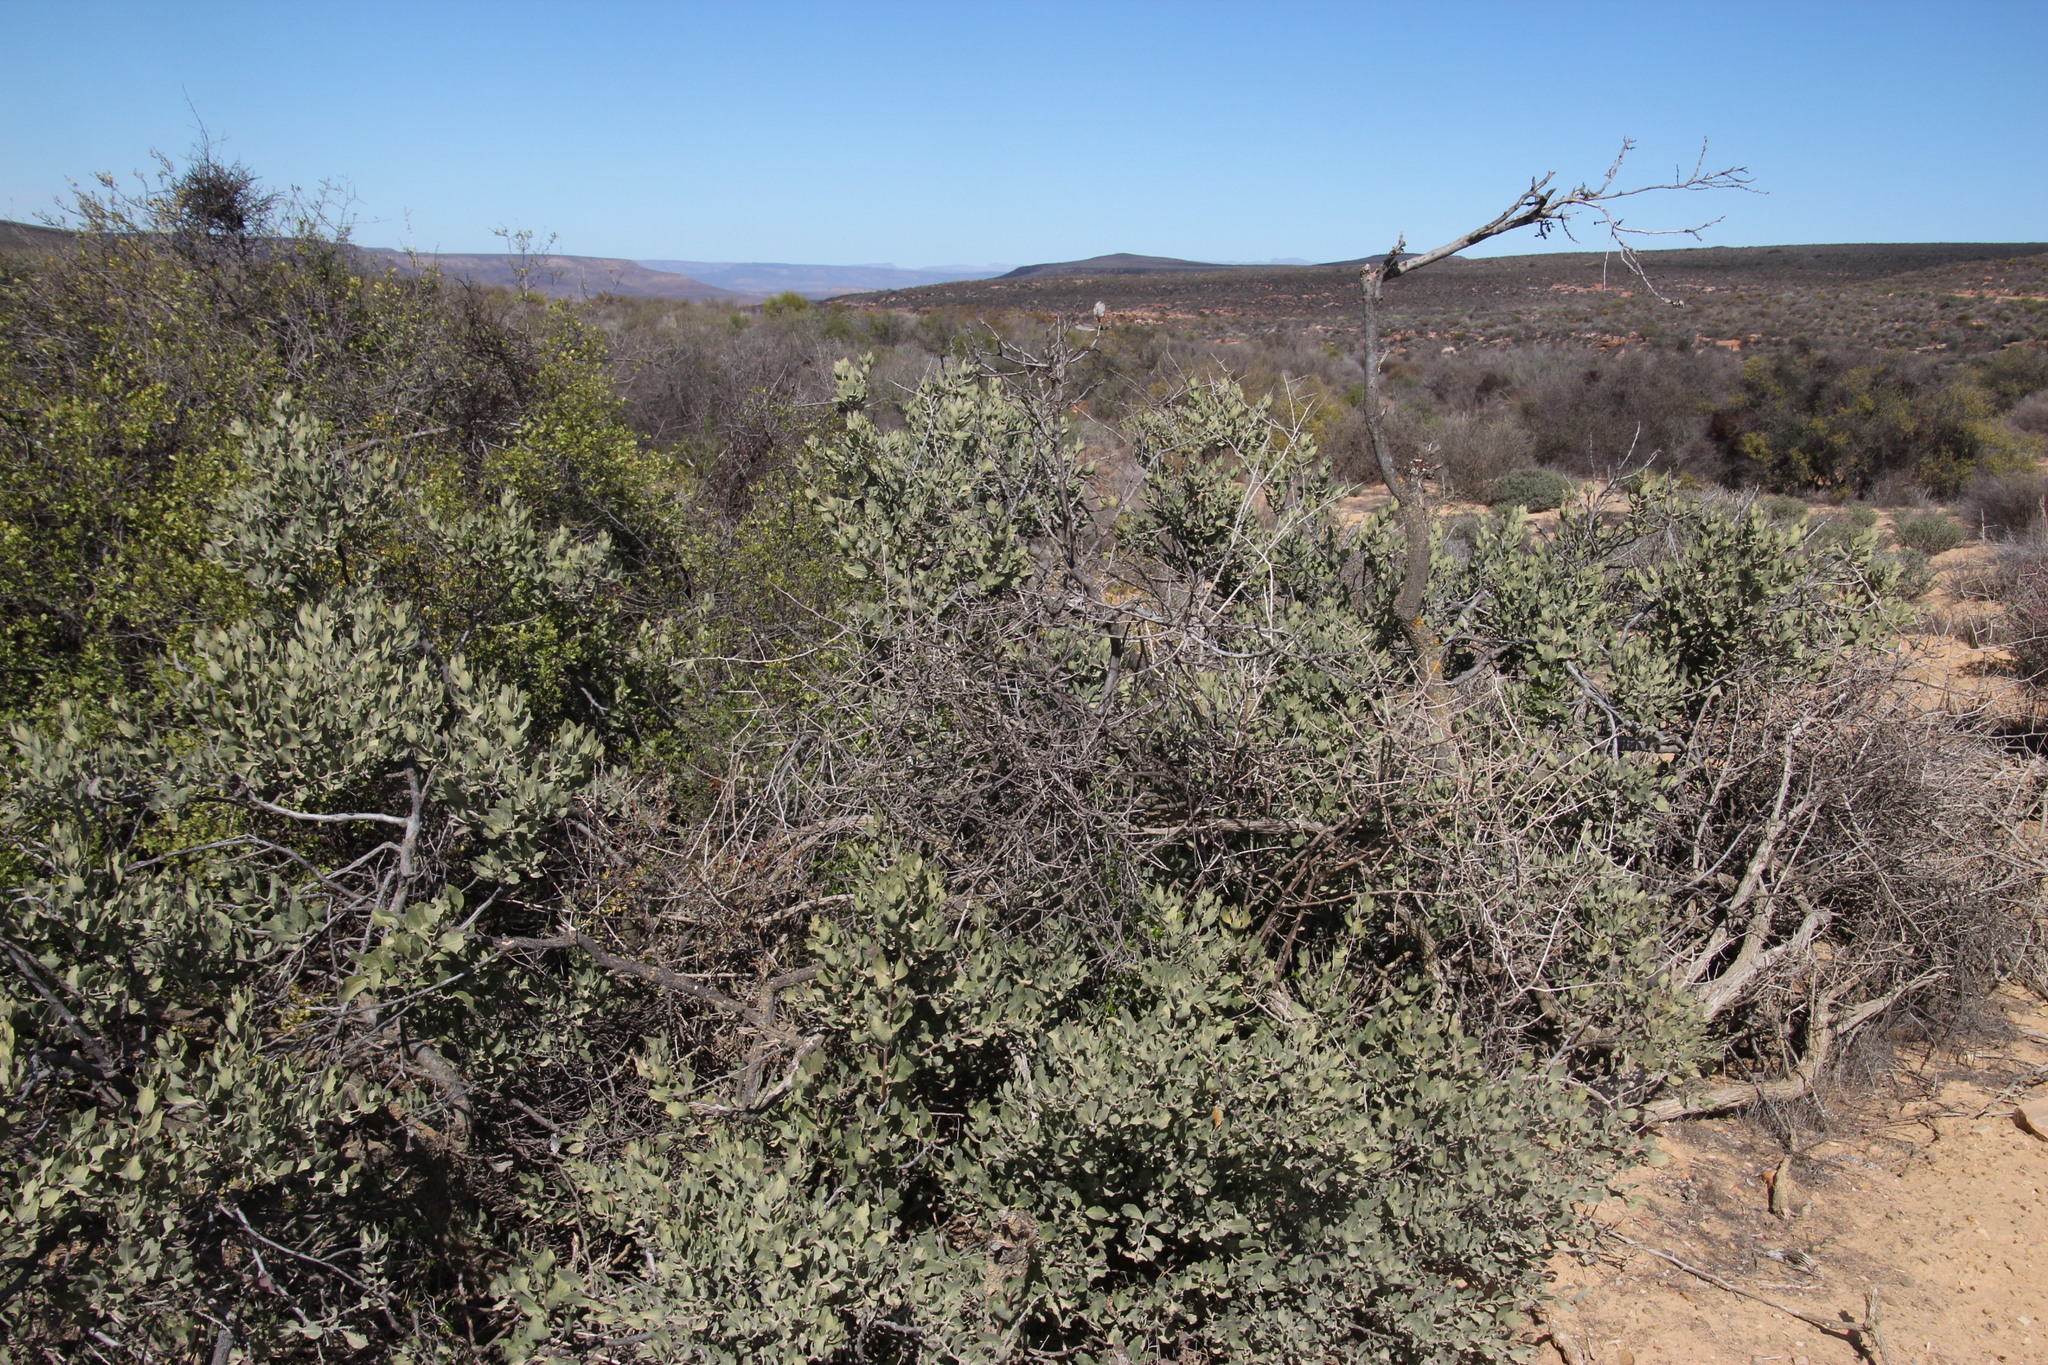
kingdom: Plantae
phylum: Tracheophyta
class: Magnoliopsida
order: Ericales
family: Ebenaceae
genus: Euclea
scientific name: Euclea acutifolia
